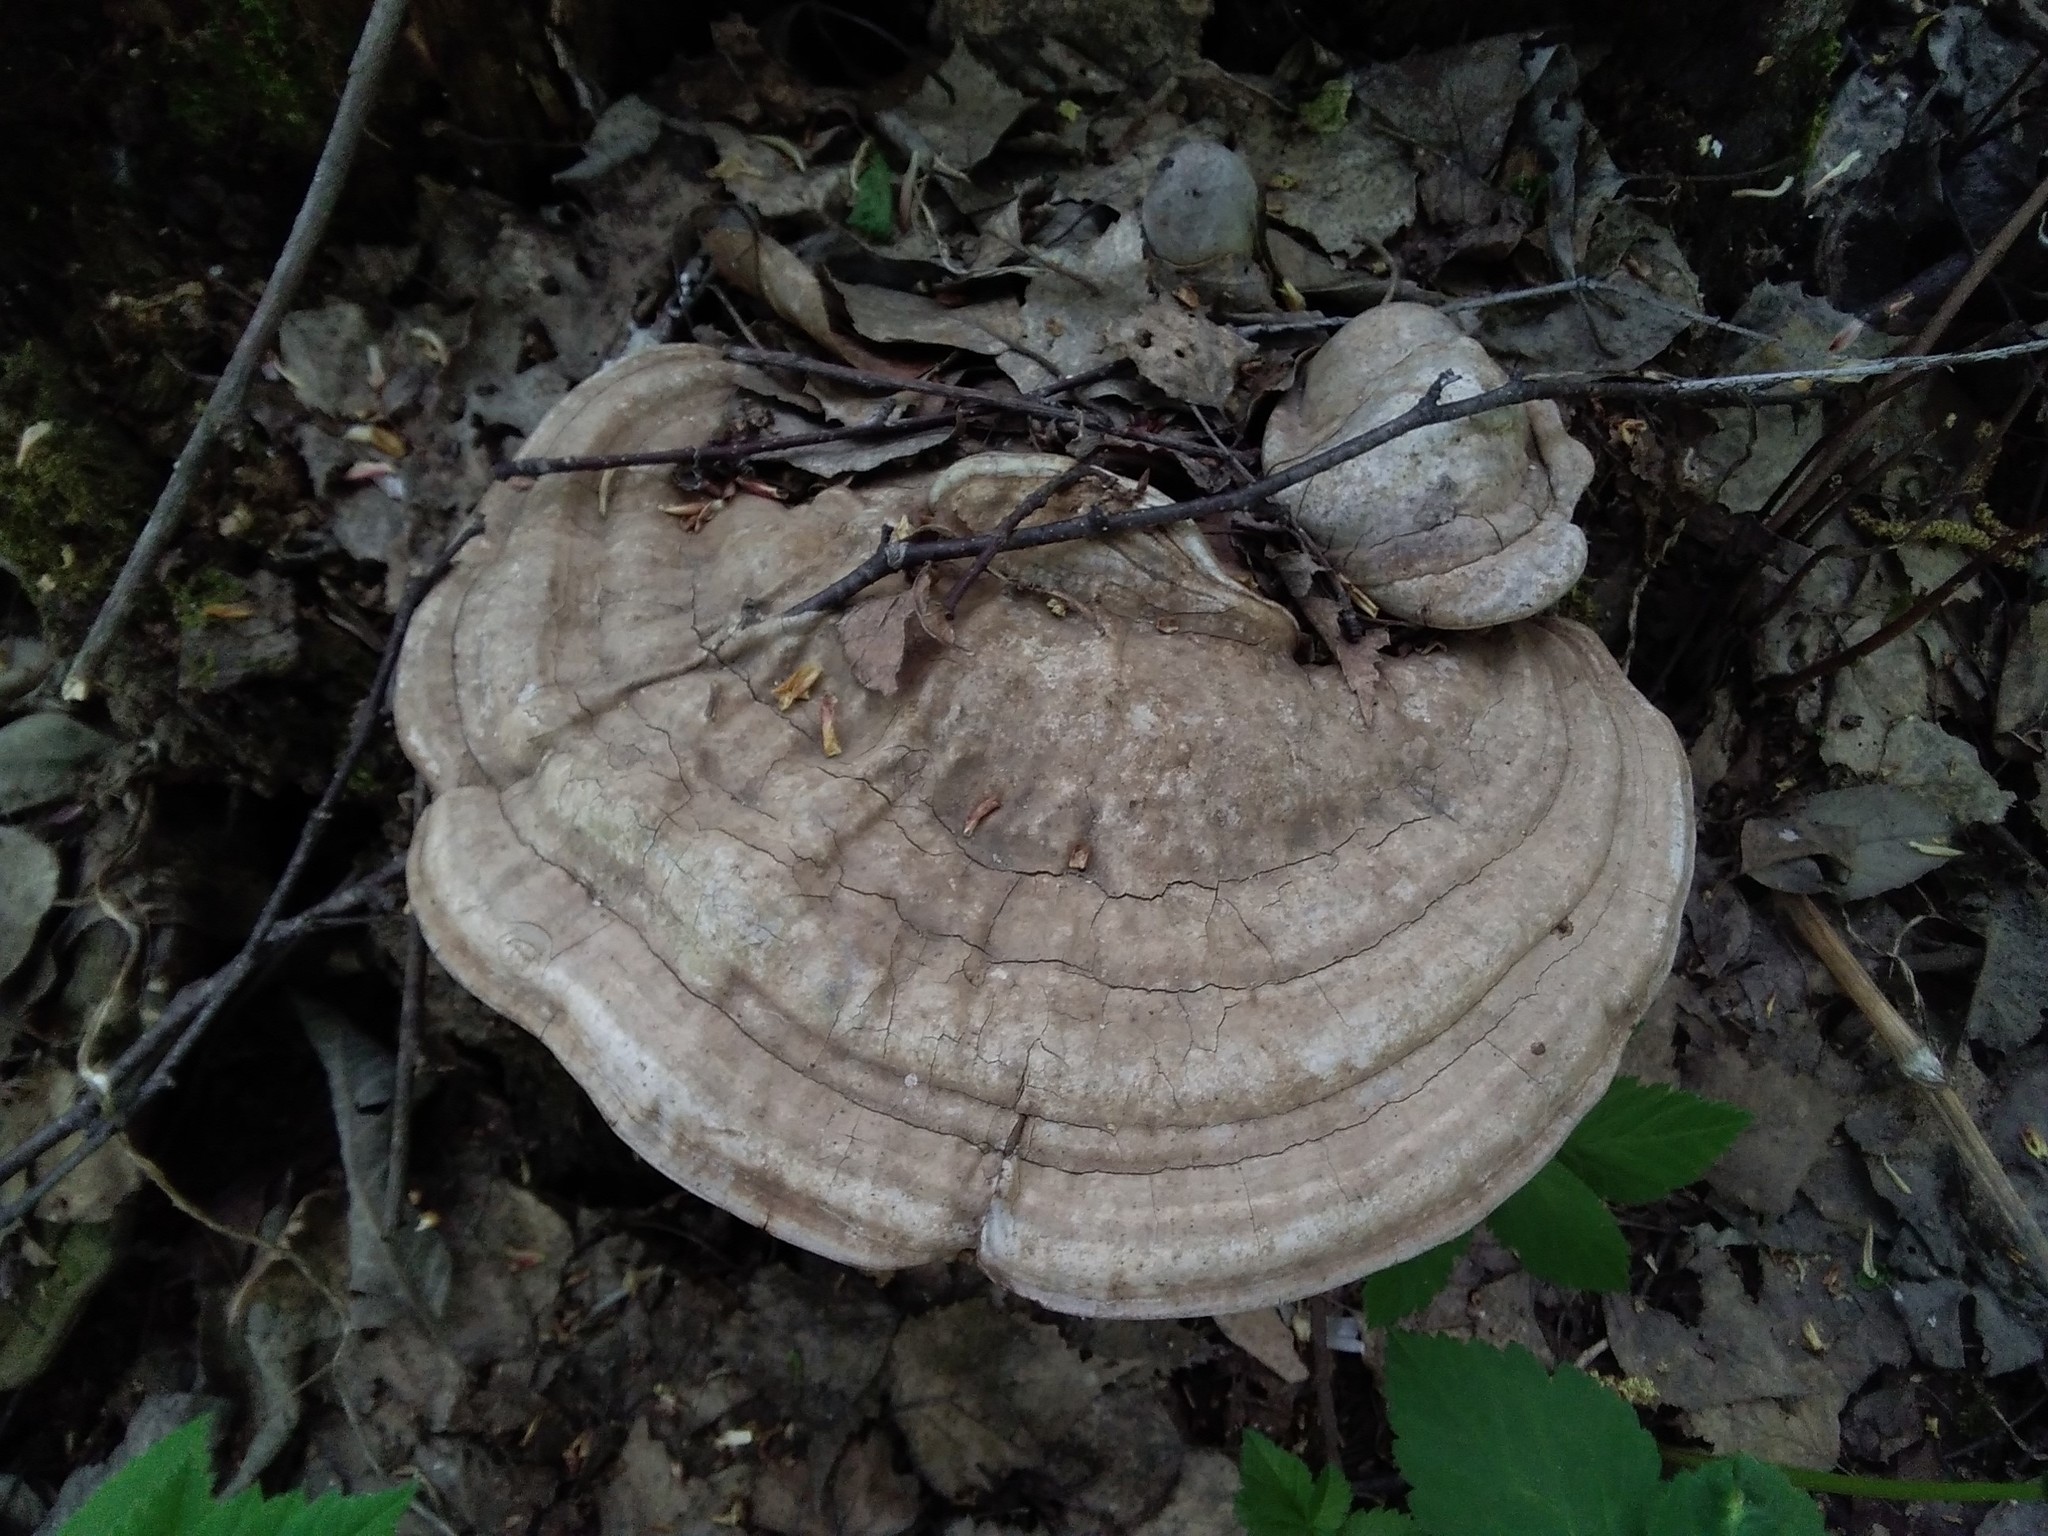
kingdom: Fungi
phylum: Basidiomycota
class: Agaricomycetes
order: Polyporales
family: Polyporaceae
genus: Ganoderma
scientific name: Ganoderma applanatum
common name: Artist's bracket
